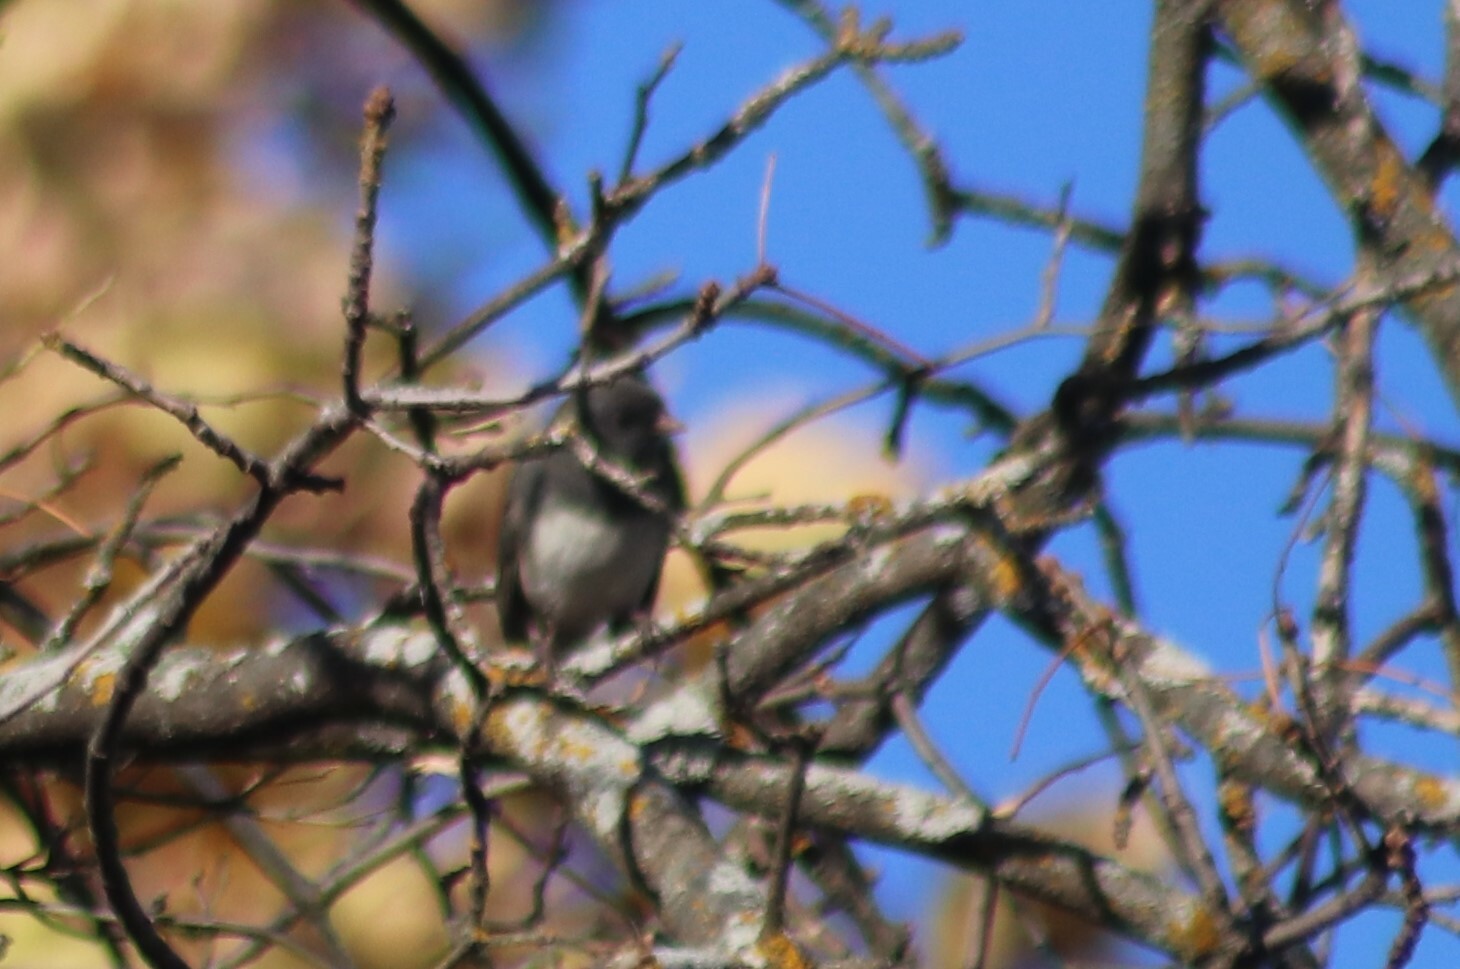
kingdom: Animalia
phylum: Chordata
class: Aves
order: Passeriformes
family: Passerellidae
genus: Junco
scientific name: Junco hyemalis
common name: Dark-eyed junco
